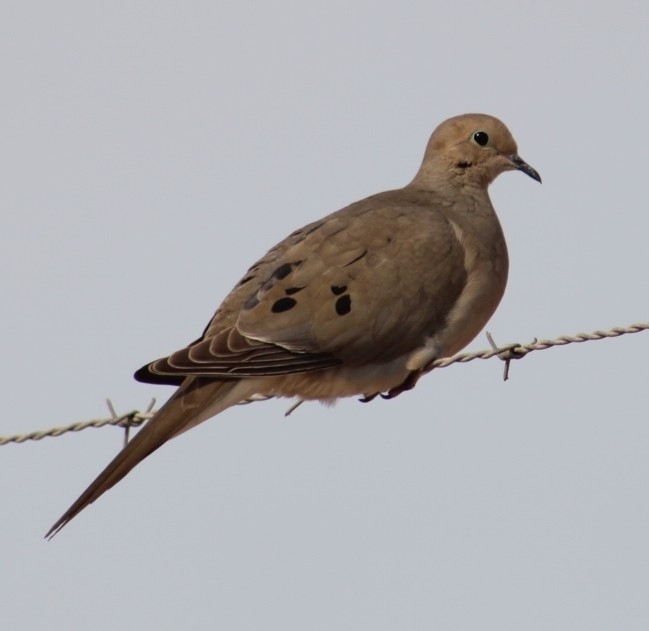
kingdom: Animalia
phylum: Chordata
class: Aves
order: Columbiformes
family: Columbidae
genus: Zenaida
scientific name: Zenaida macroura
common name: Mourning dove
